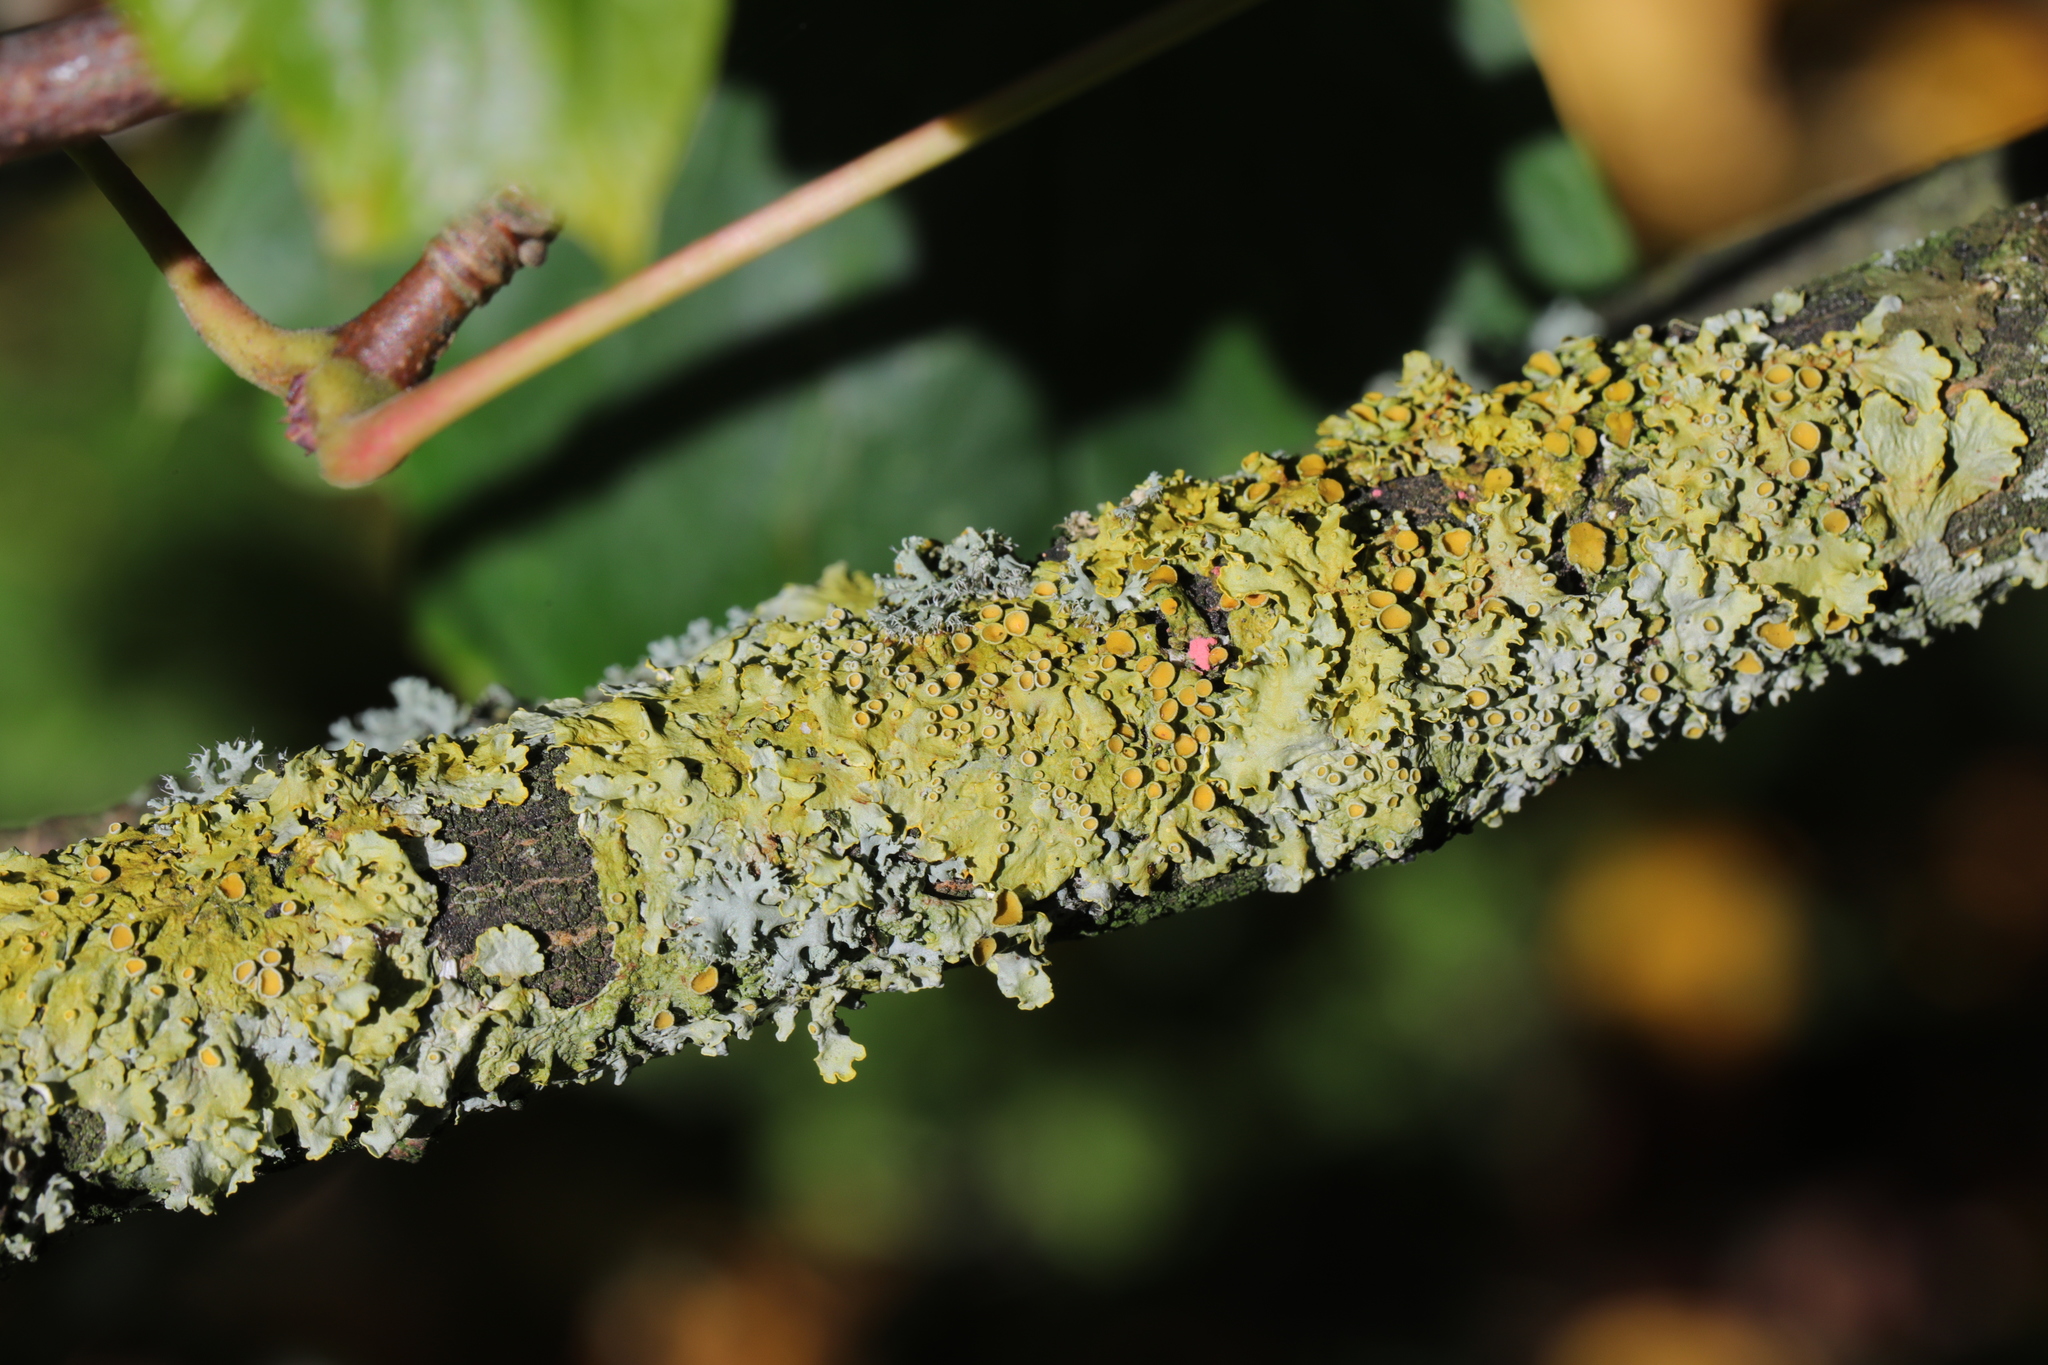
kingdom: Fungi
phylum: Ascomycota
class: Lecanoromycetes
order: Teloschistales
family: Teloschistaceae
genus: Xanthoria
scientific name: Xanthoria parietina
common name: Common orange lichen
